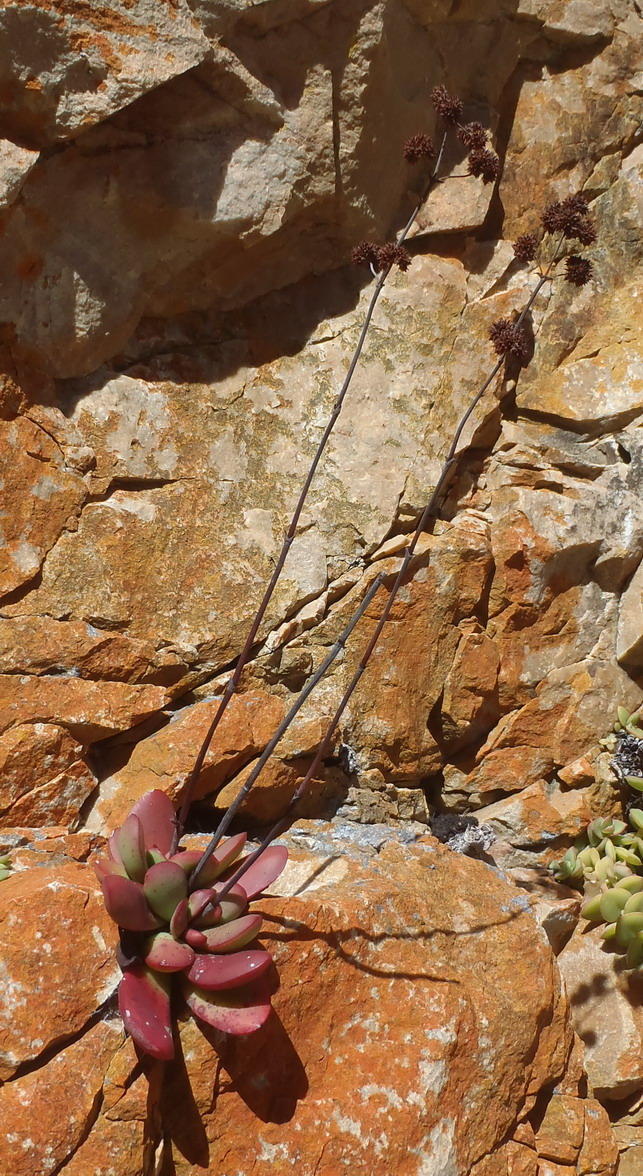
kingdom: Plantae
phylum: Tracheophyta
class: Magnoliopsida
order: Saxifragales
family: Crassulaceae
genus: Crassula
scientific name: Crassula atropurpurea
